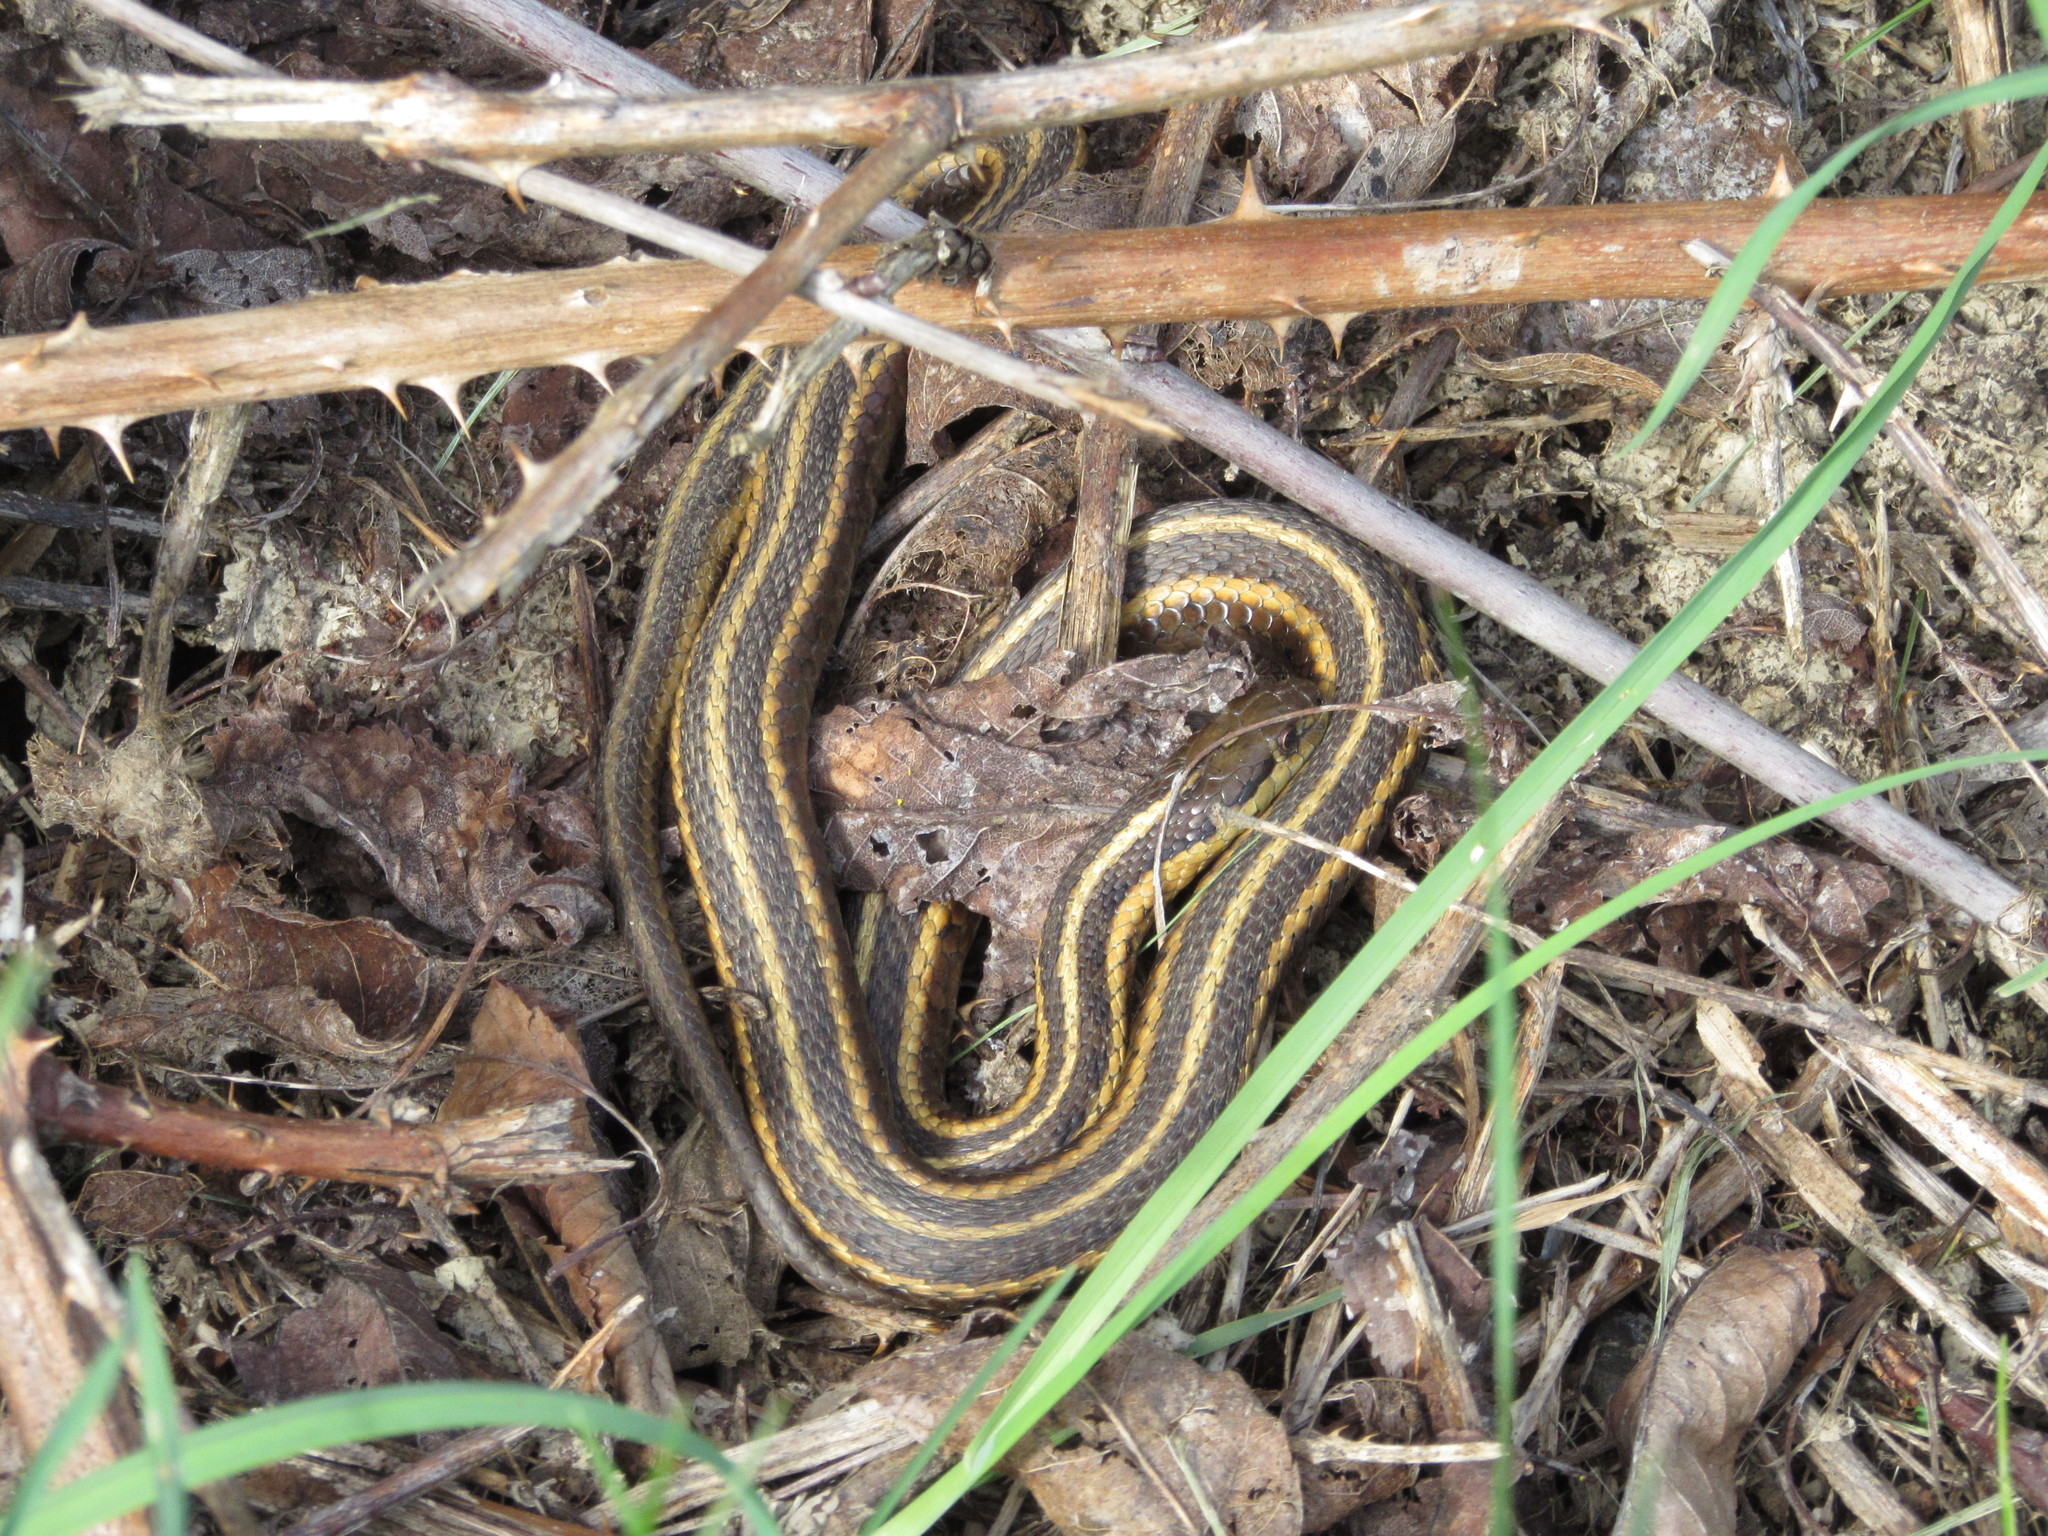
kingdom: Animalia
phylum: Chordata
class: Squamata
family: Colubridae
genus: Thamnophis
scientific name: Thamnophis ordinoides
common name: Northwestern garter snake
